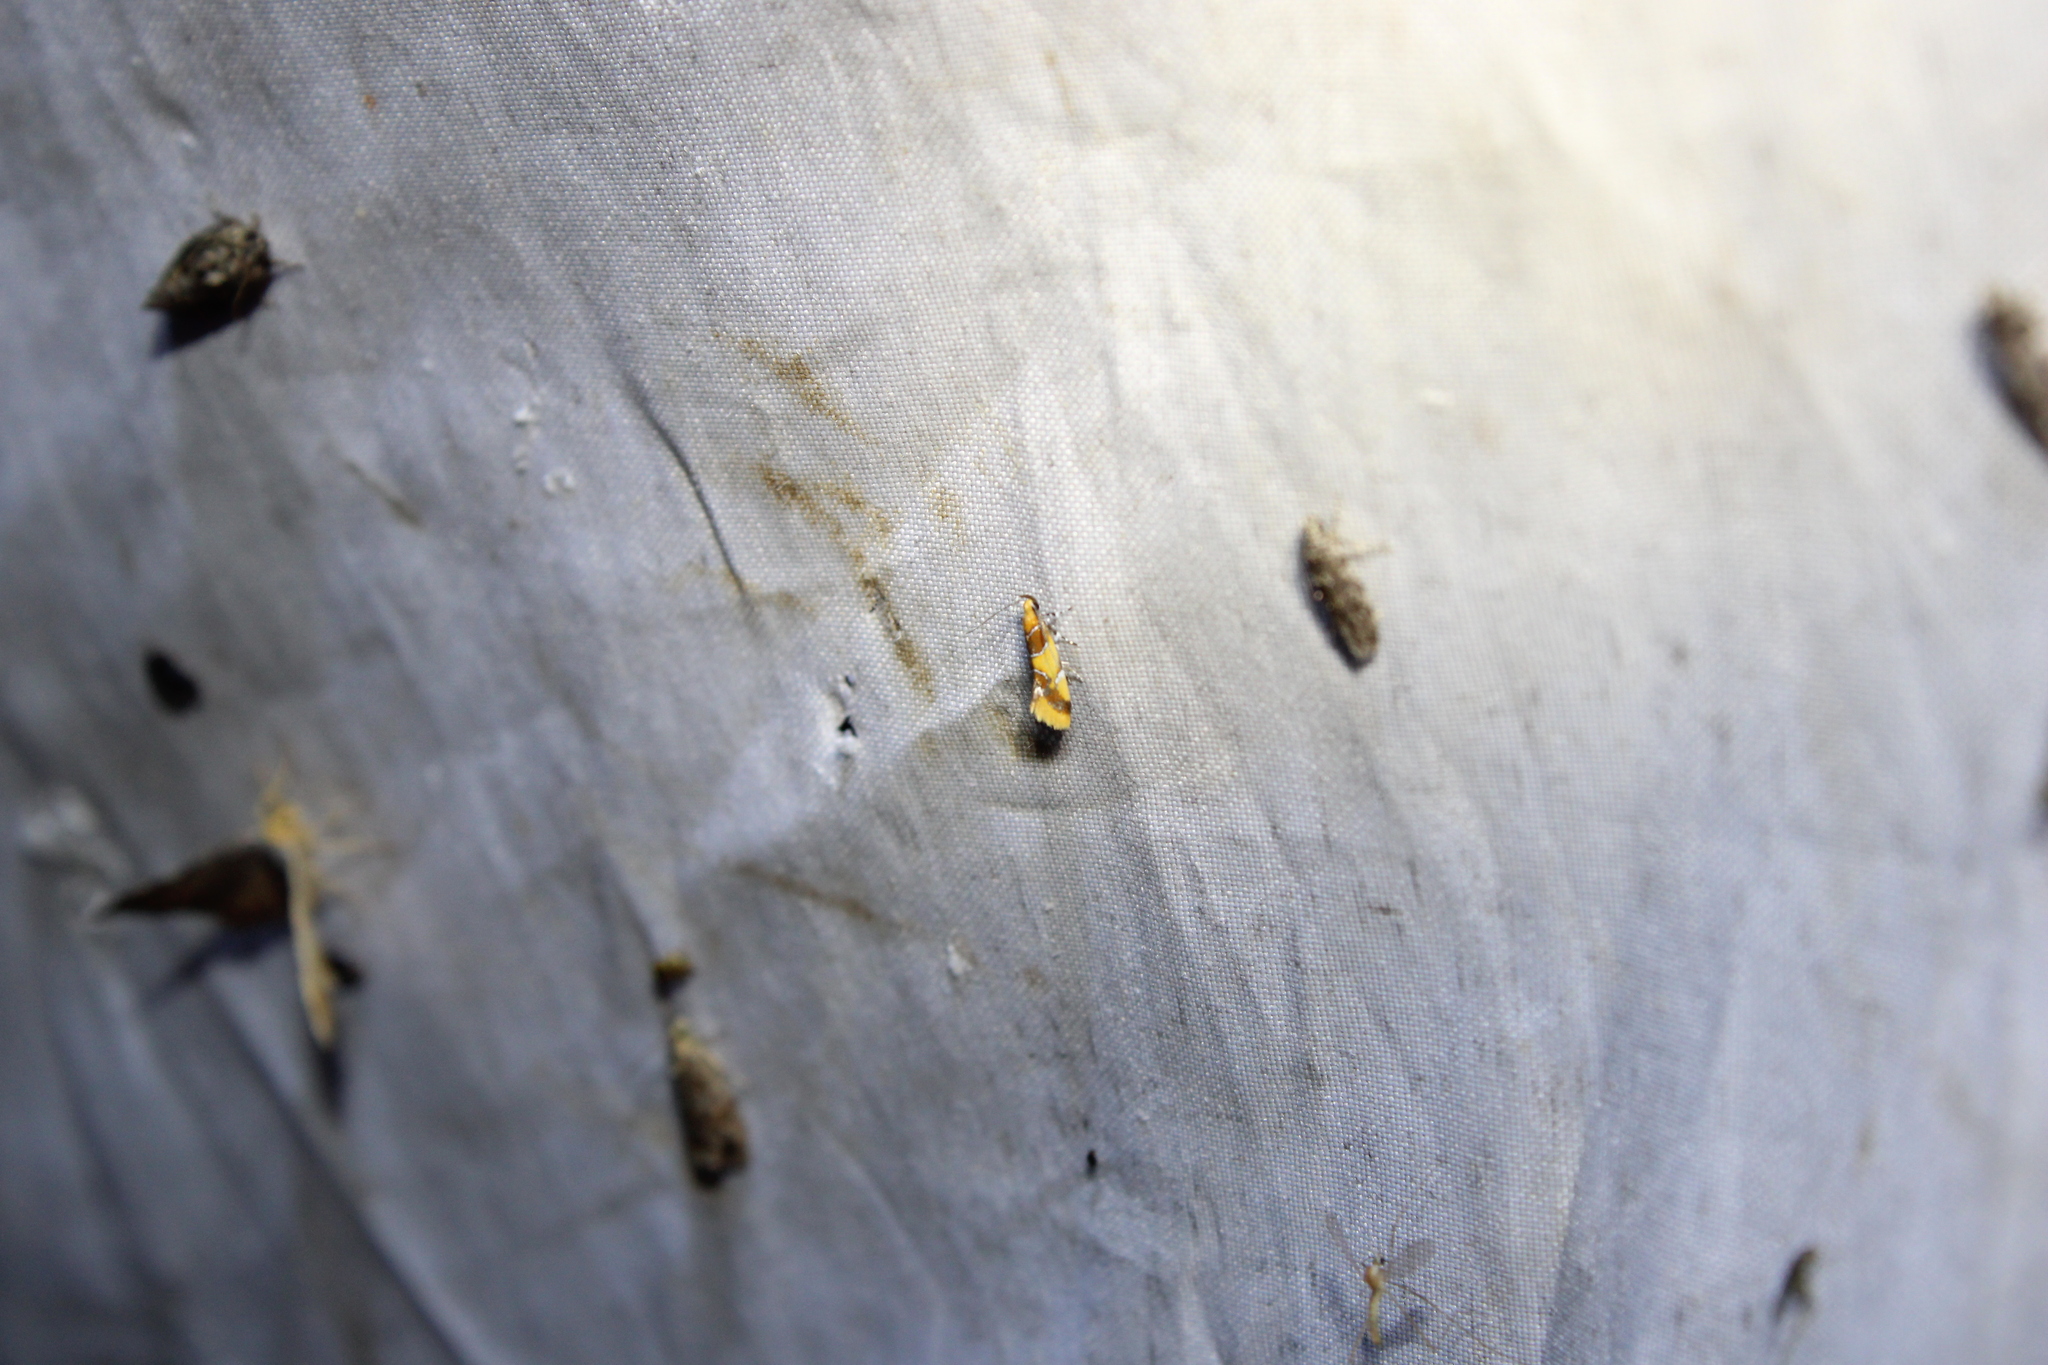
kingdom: Animalia
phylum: Arthropoda
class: Insecta
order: Lepidoptera
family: Oecophoridae
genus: Callima
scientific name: Callima argenticinctella
